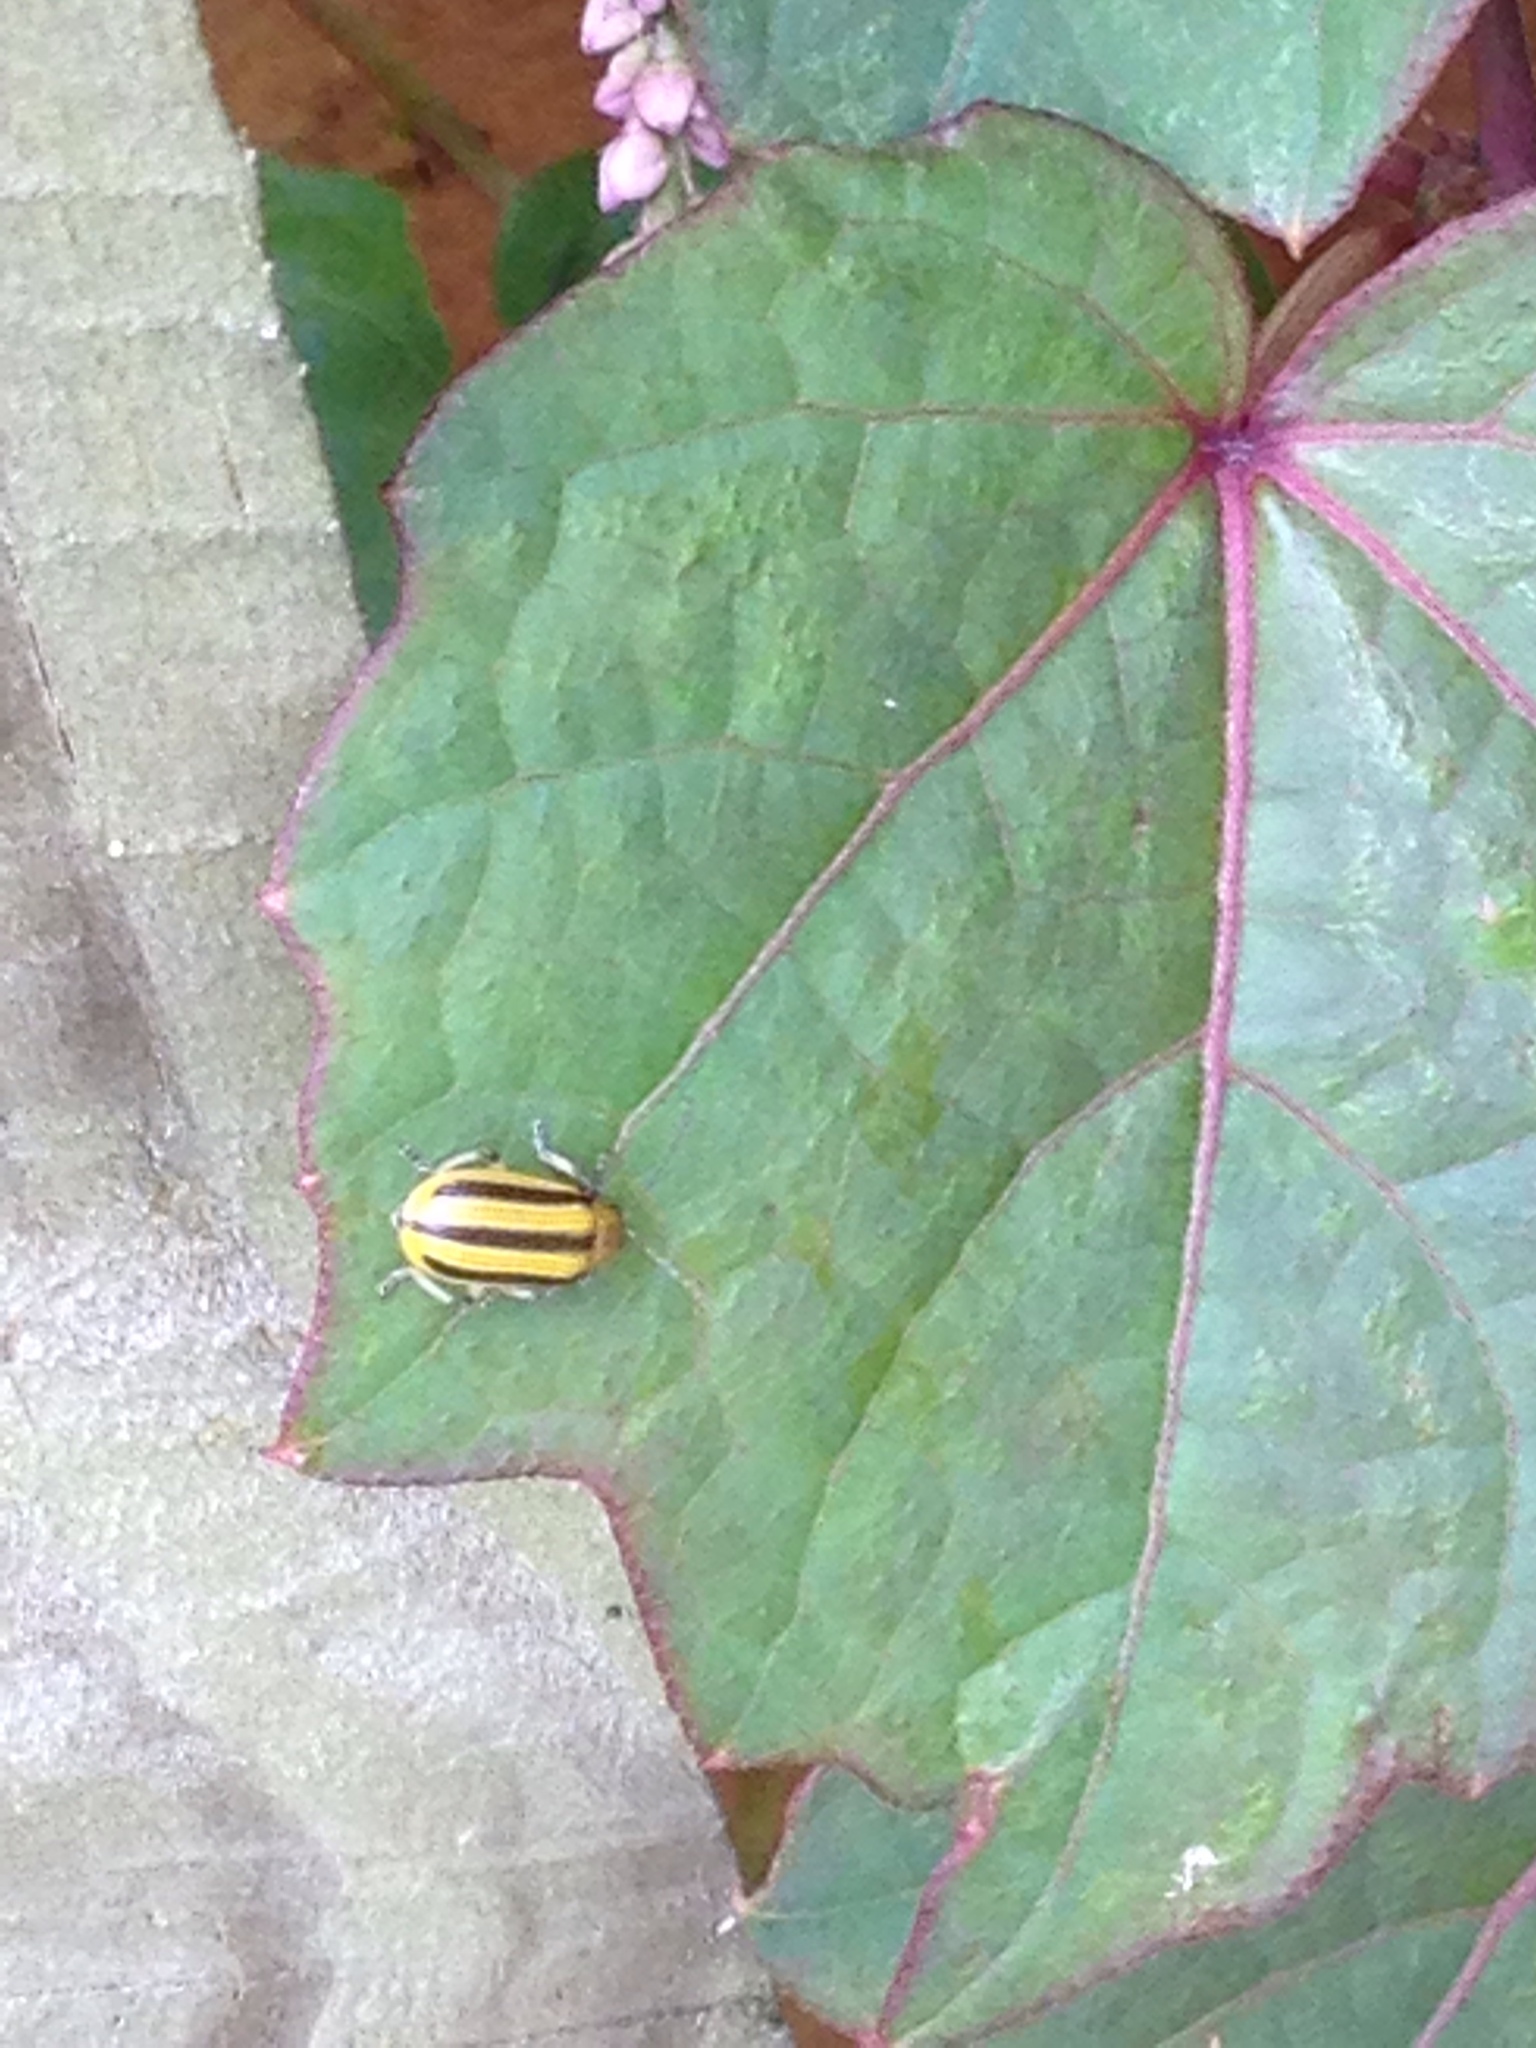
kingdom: Animalia
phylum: Arthropoda
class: Insecta
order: Coleoptera
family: Chrysomelidae
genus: Acalymma
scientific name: Acalymma vittatum
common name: Striped cucumber beetle
